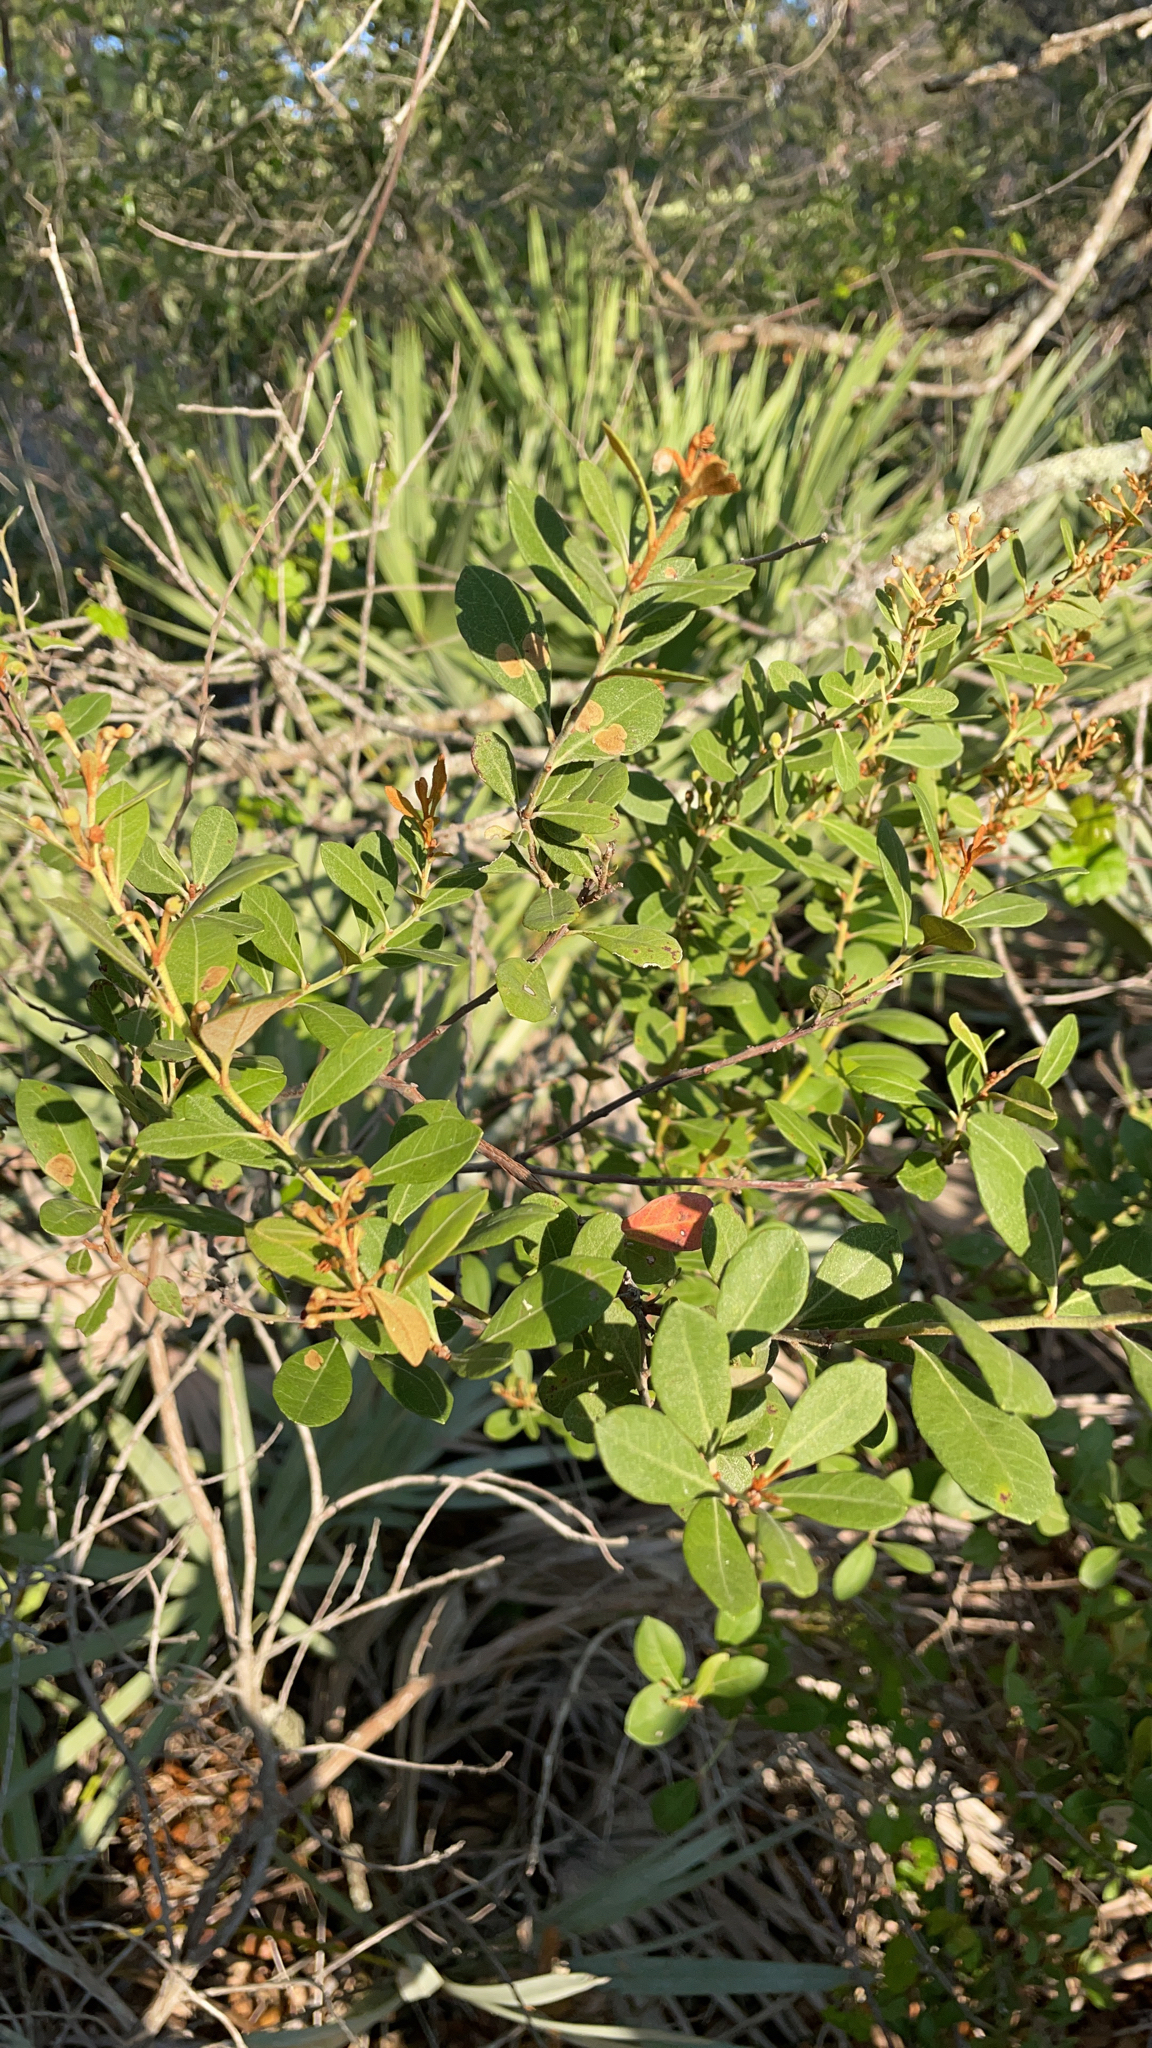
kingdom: Plantae
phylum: Tracheophyta
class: Magnoliopsida
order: Ericales
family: Ericaceae
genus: Lyonia
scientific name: Lyonia fruticosa
